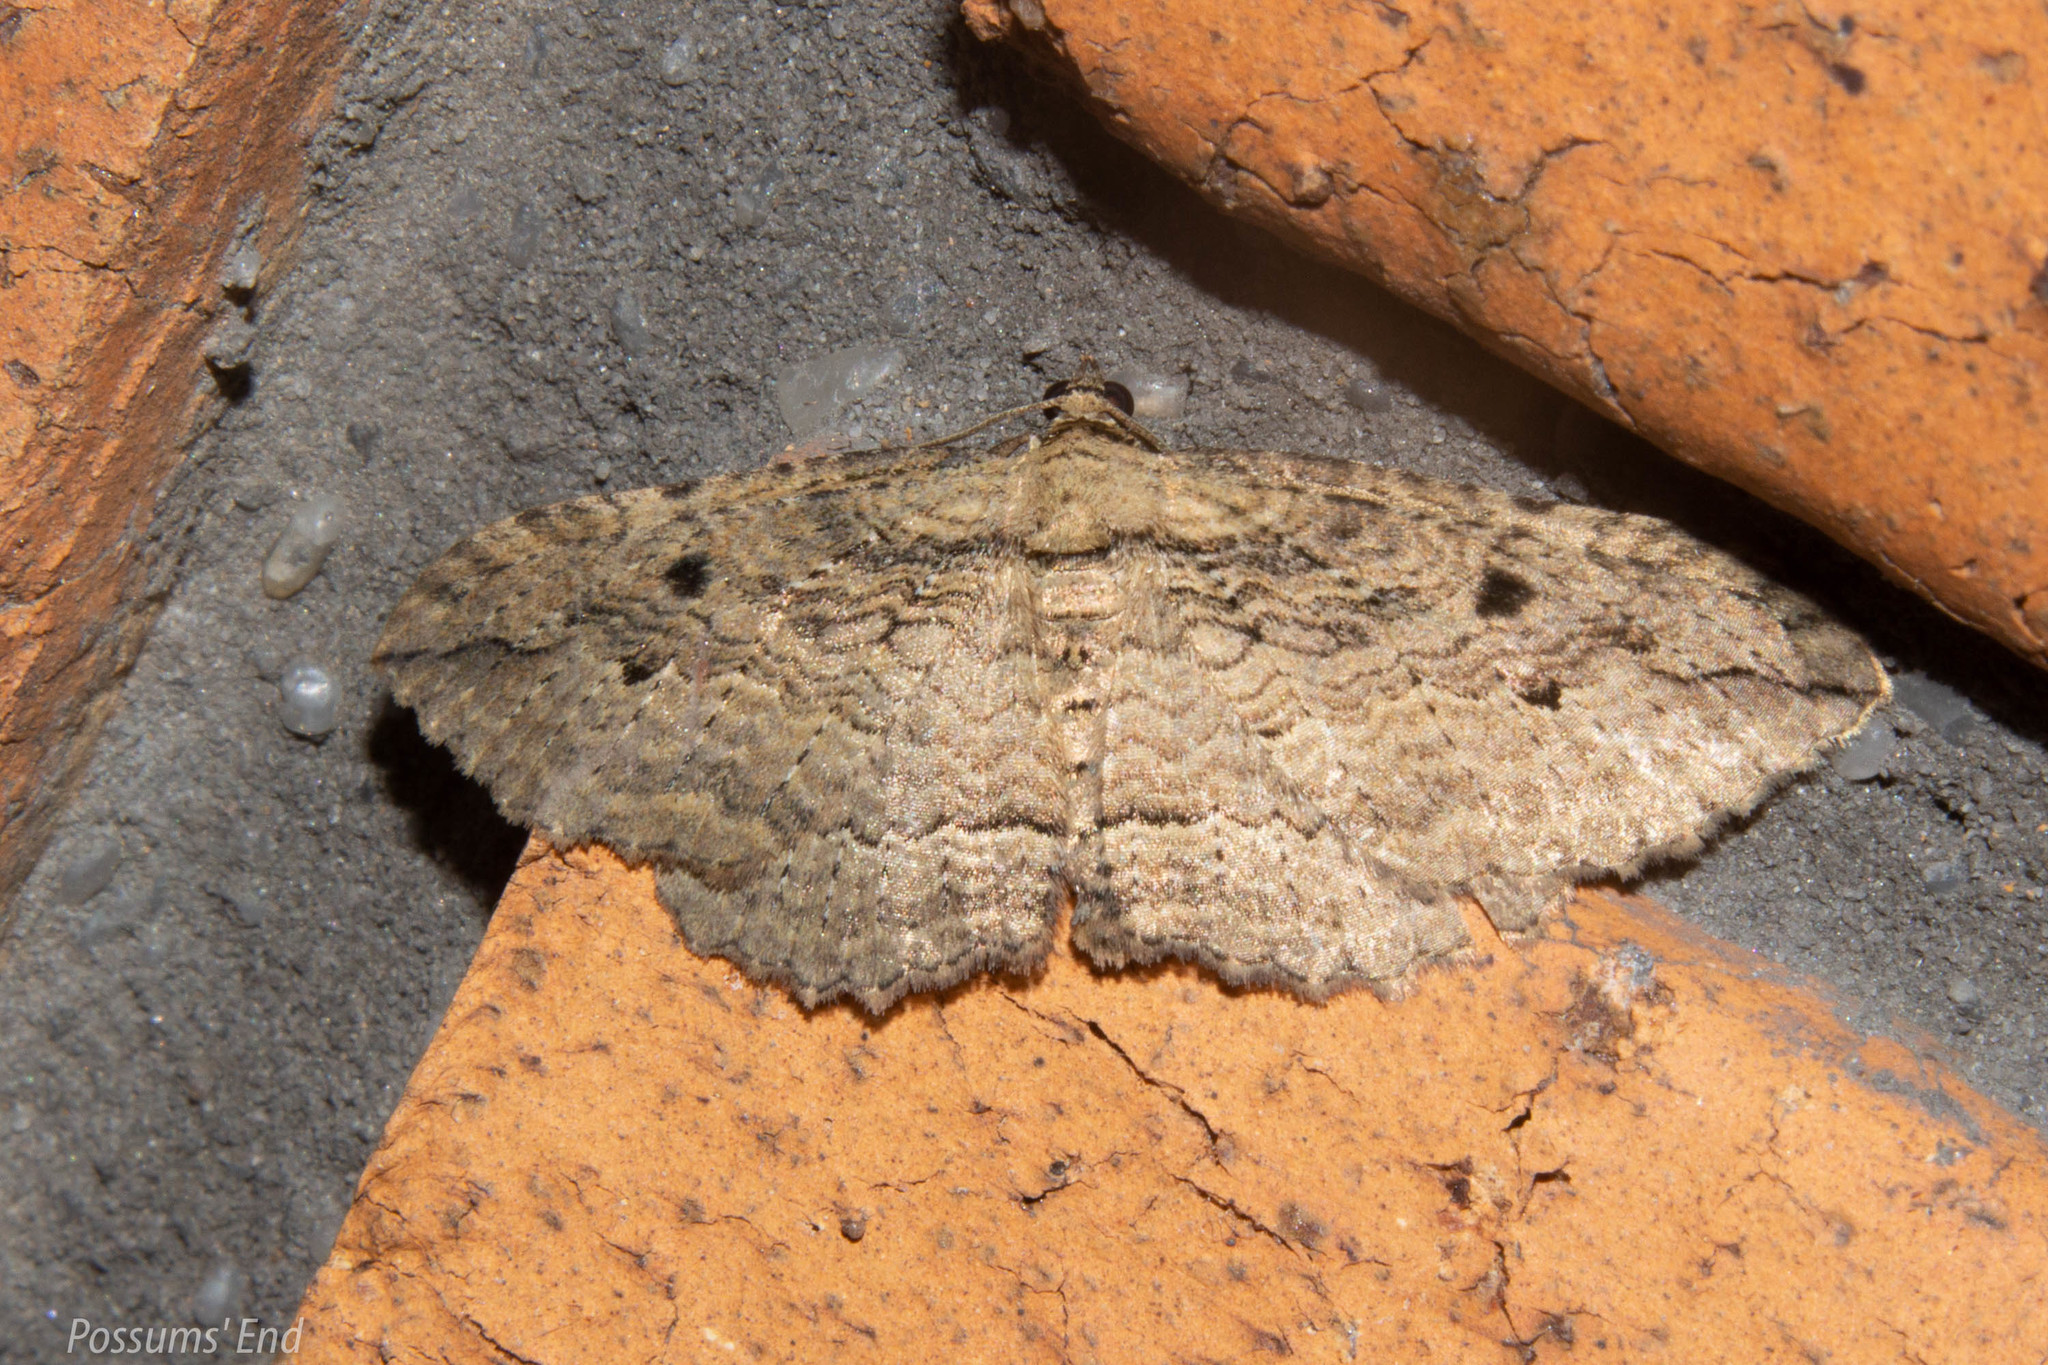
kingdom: Animalia
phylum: Arthropoda
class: Insecta
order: Lepidoptera
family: Geometridae
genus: Austrocidaria
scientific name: Austrocidaria gobiata
